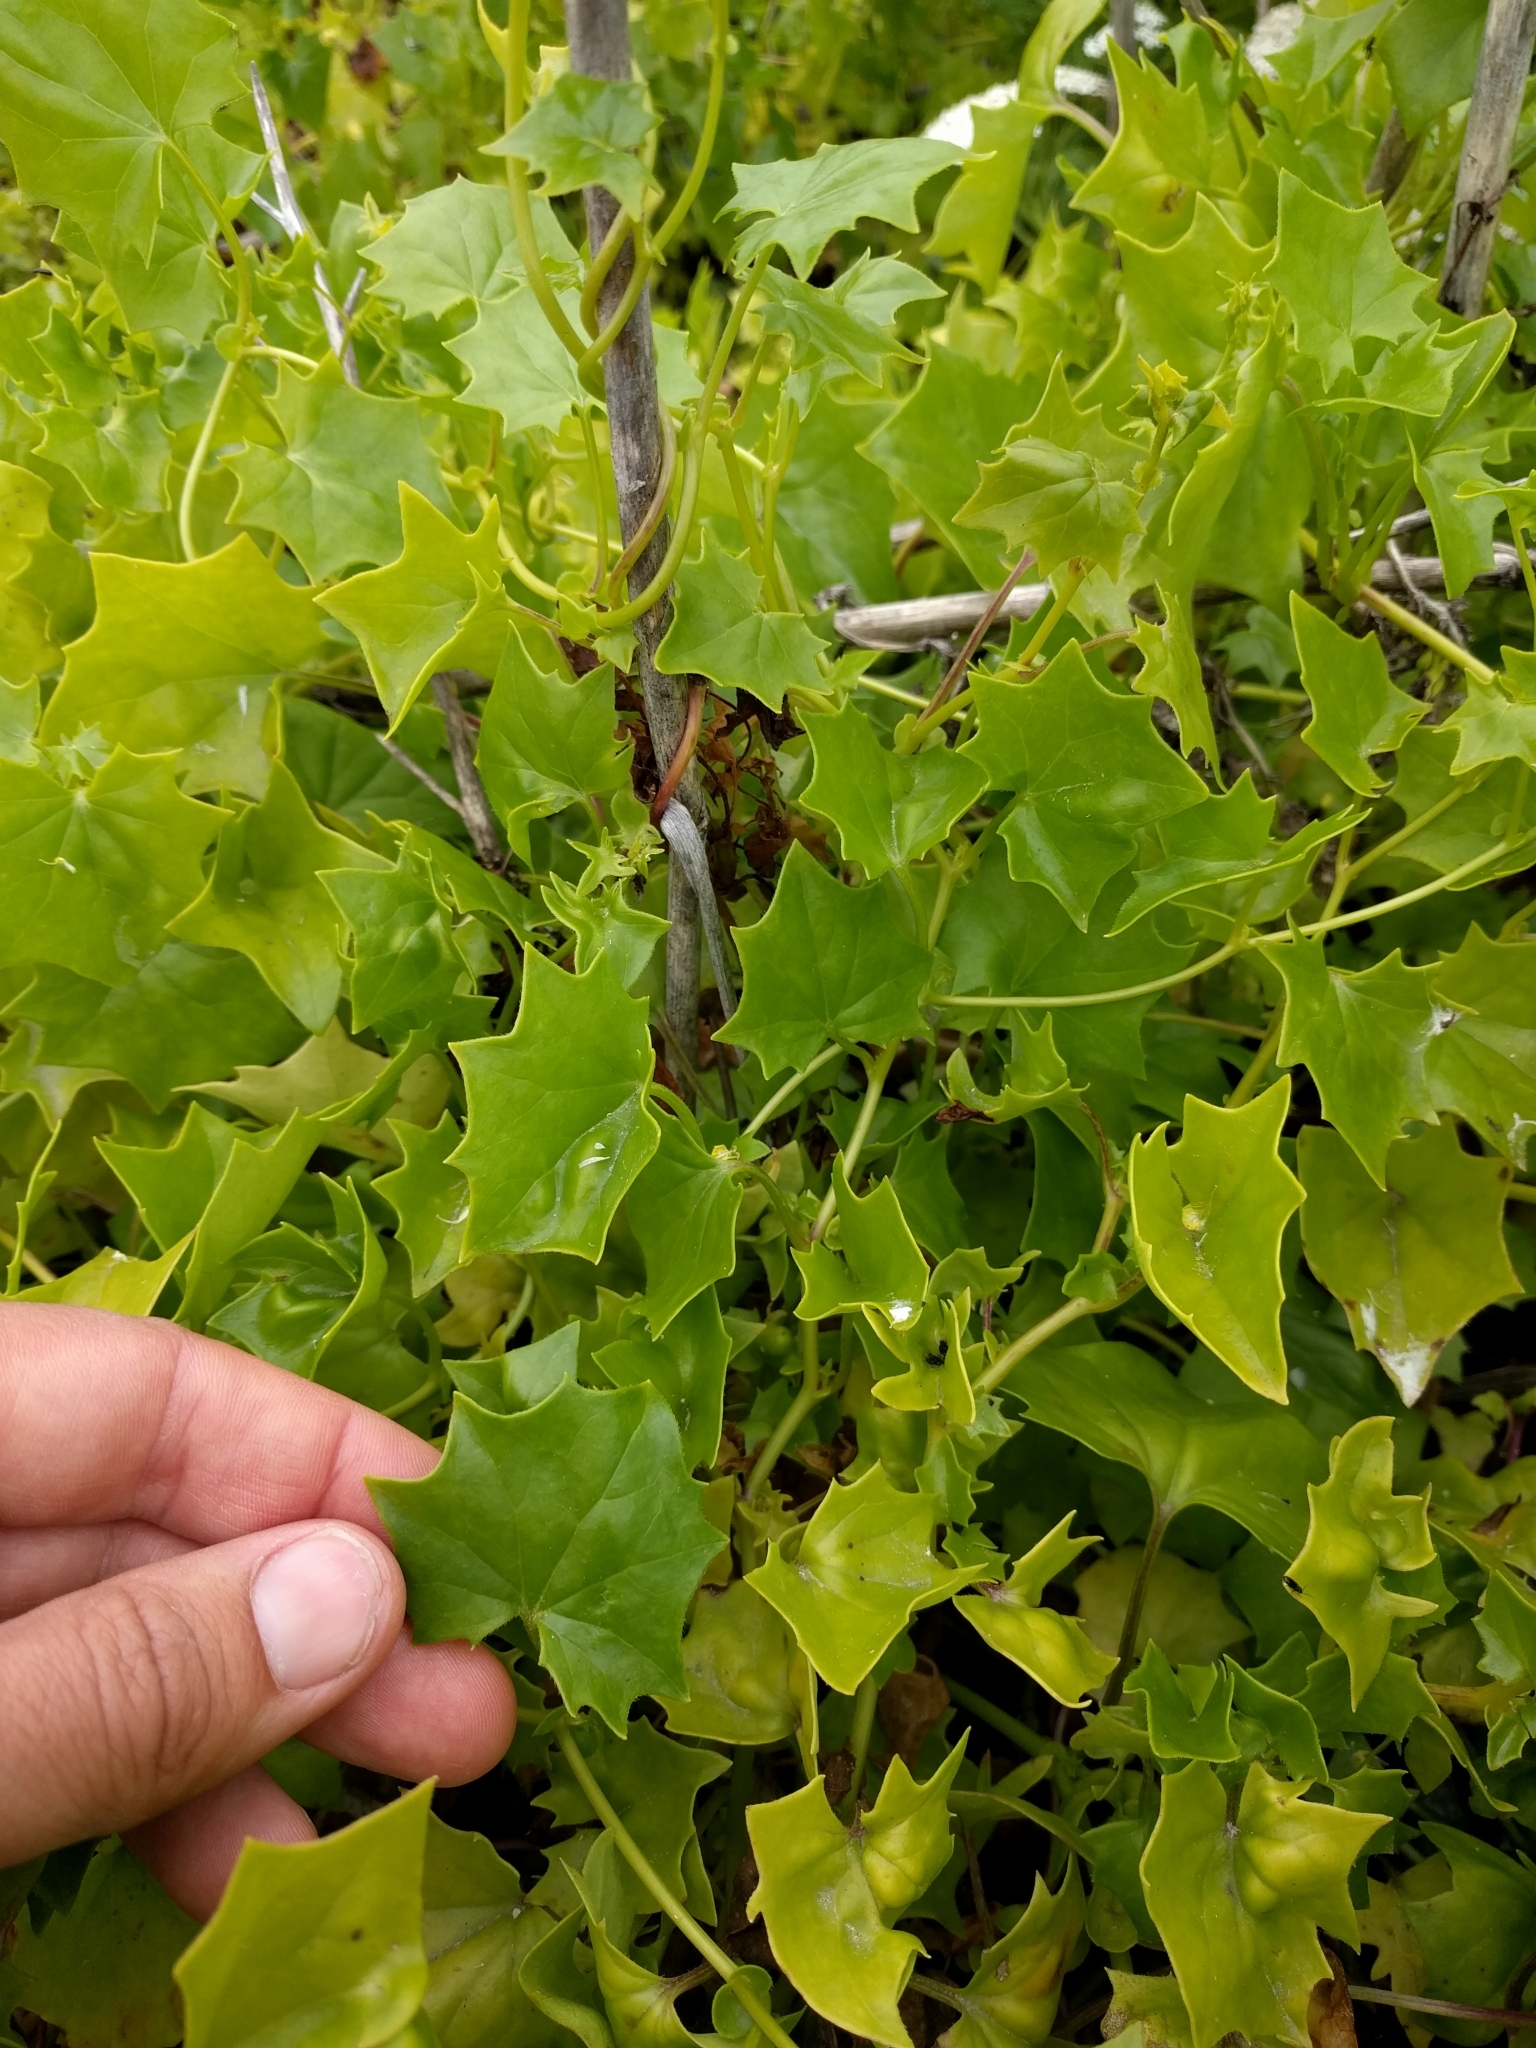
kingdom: Plantae
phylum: Tracheophyta
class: Magnoliopsida
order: Asterales
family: Asteraceae
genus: Delairea
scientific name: Delairea odorata
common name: Cape-ivy
